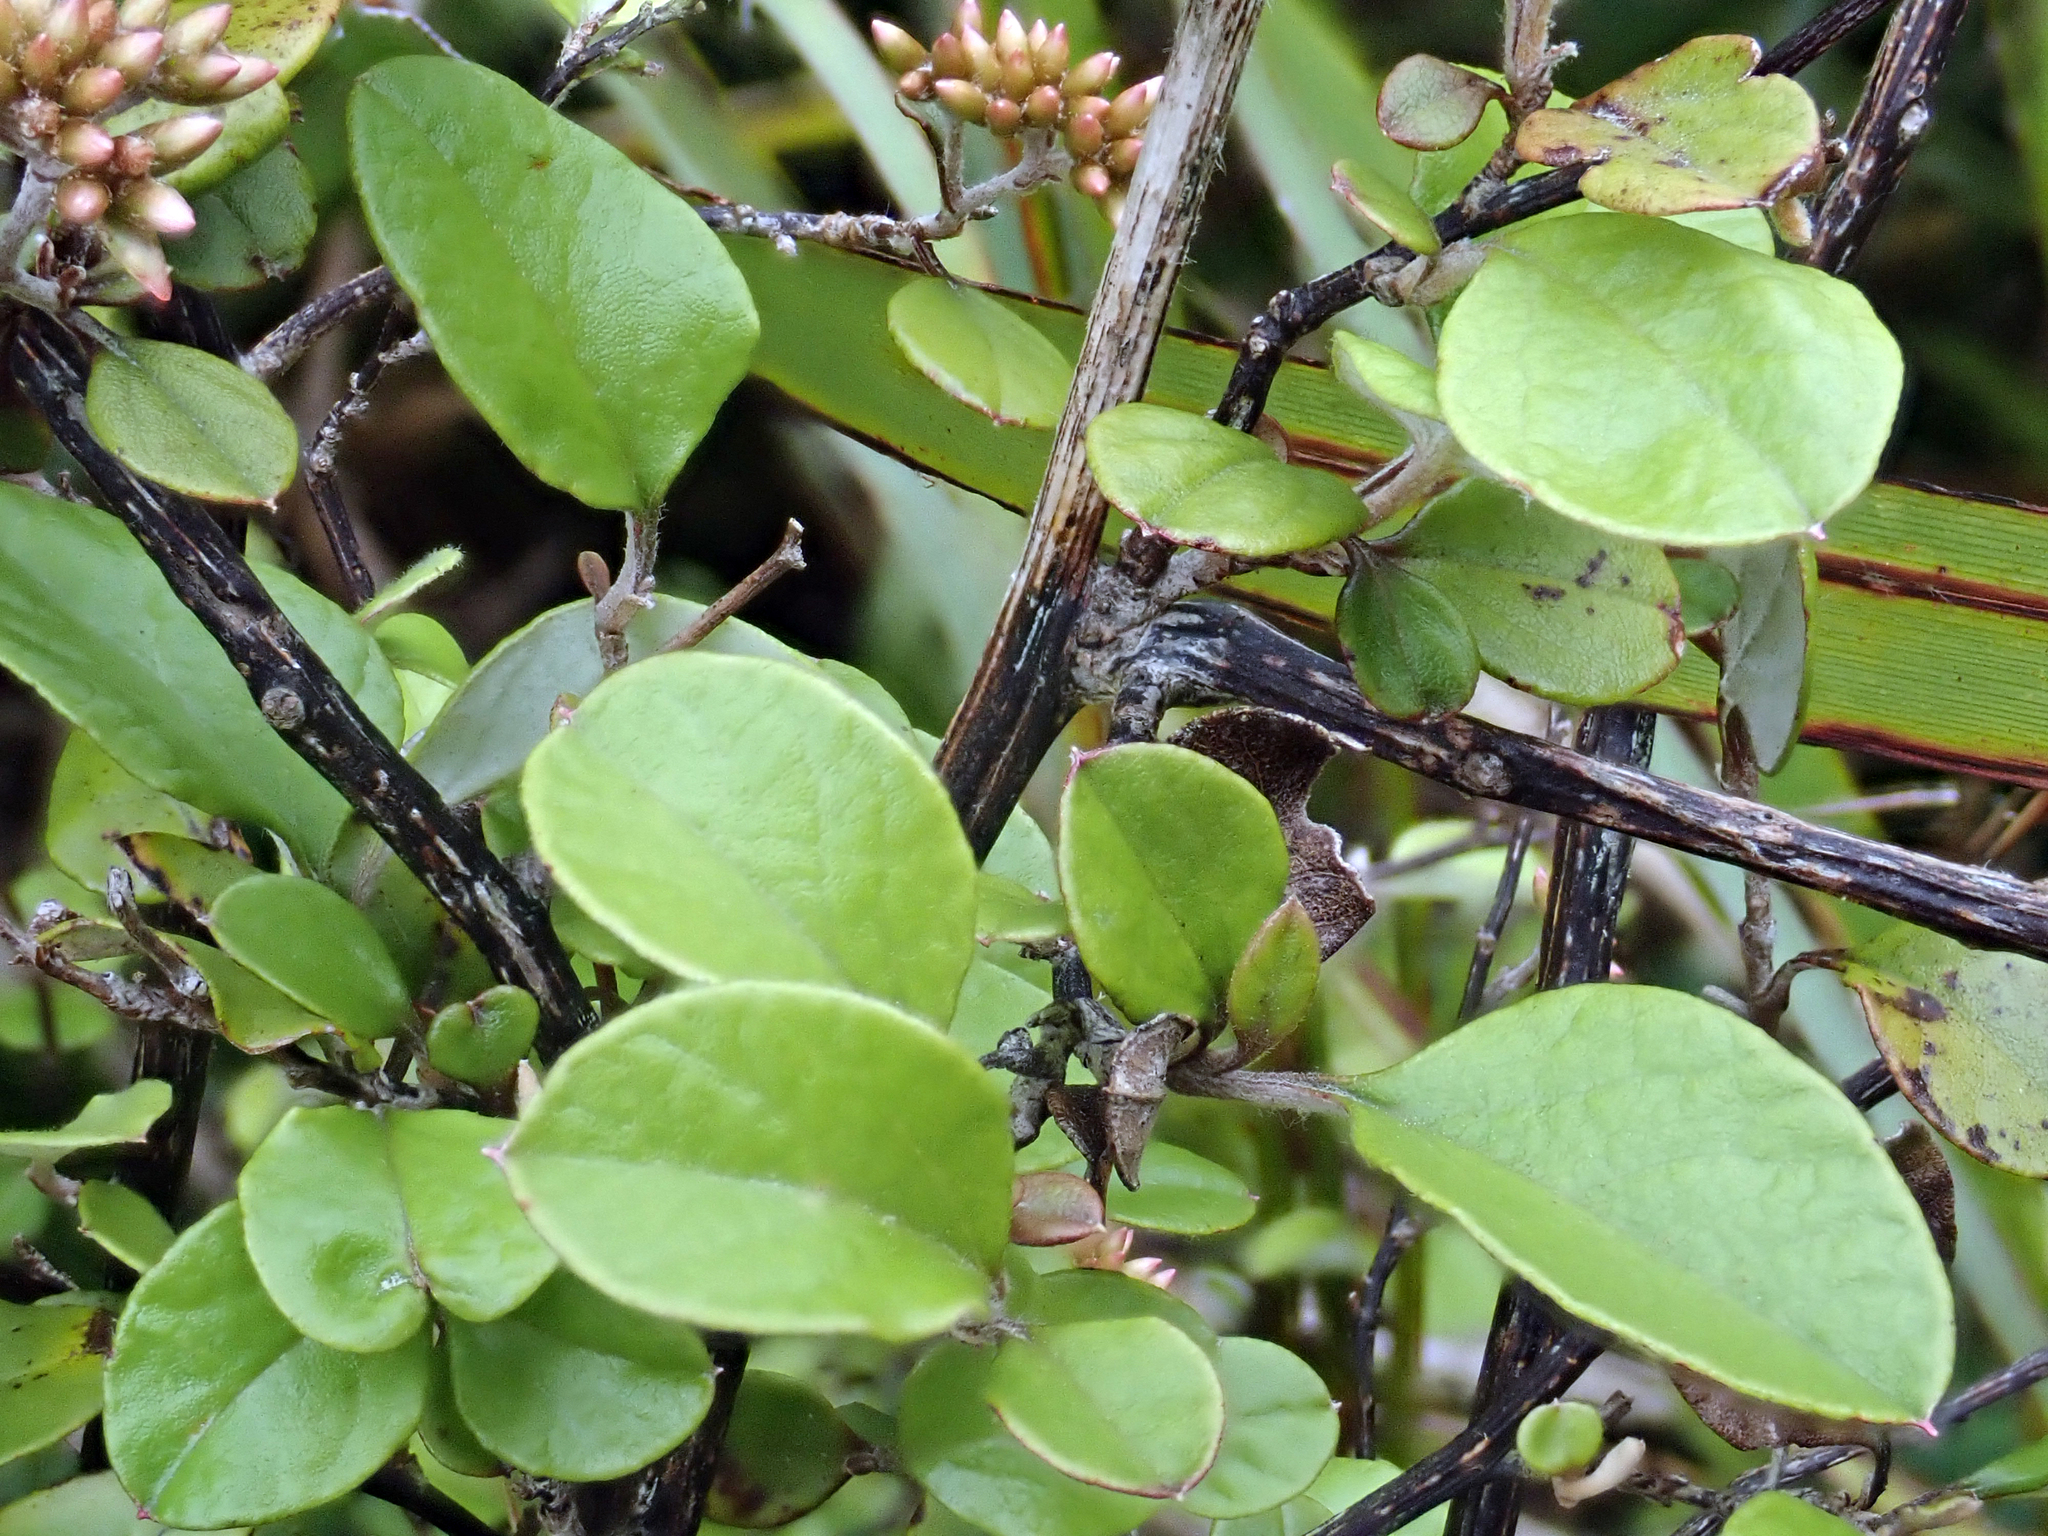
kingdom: Plantae
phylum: Tracheophyta
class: Magnoliopsida
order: Asterales
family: Asteraceae
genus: Ozothamnus
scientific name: Ozothamnus glomeratus
